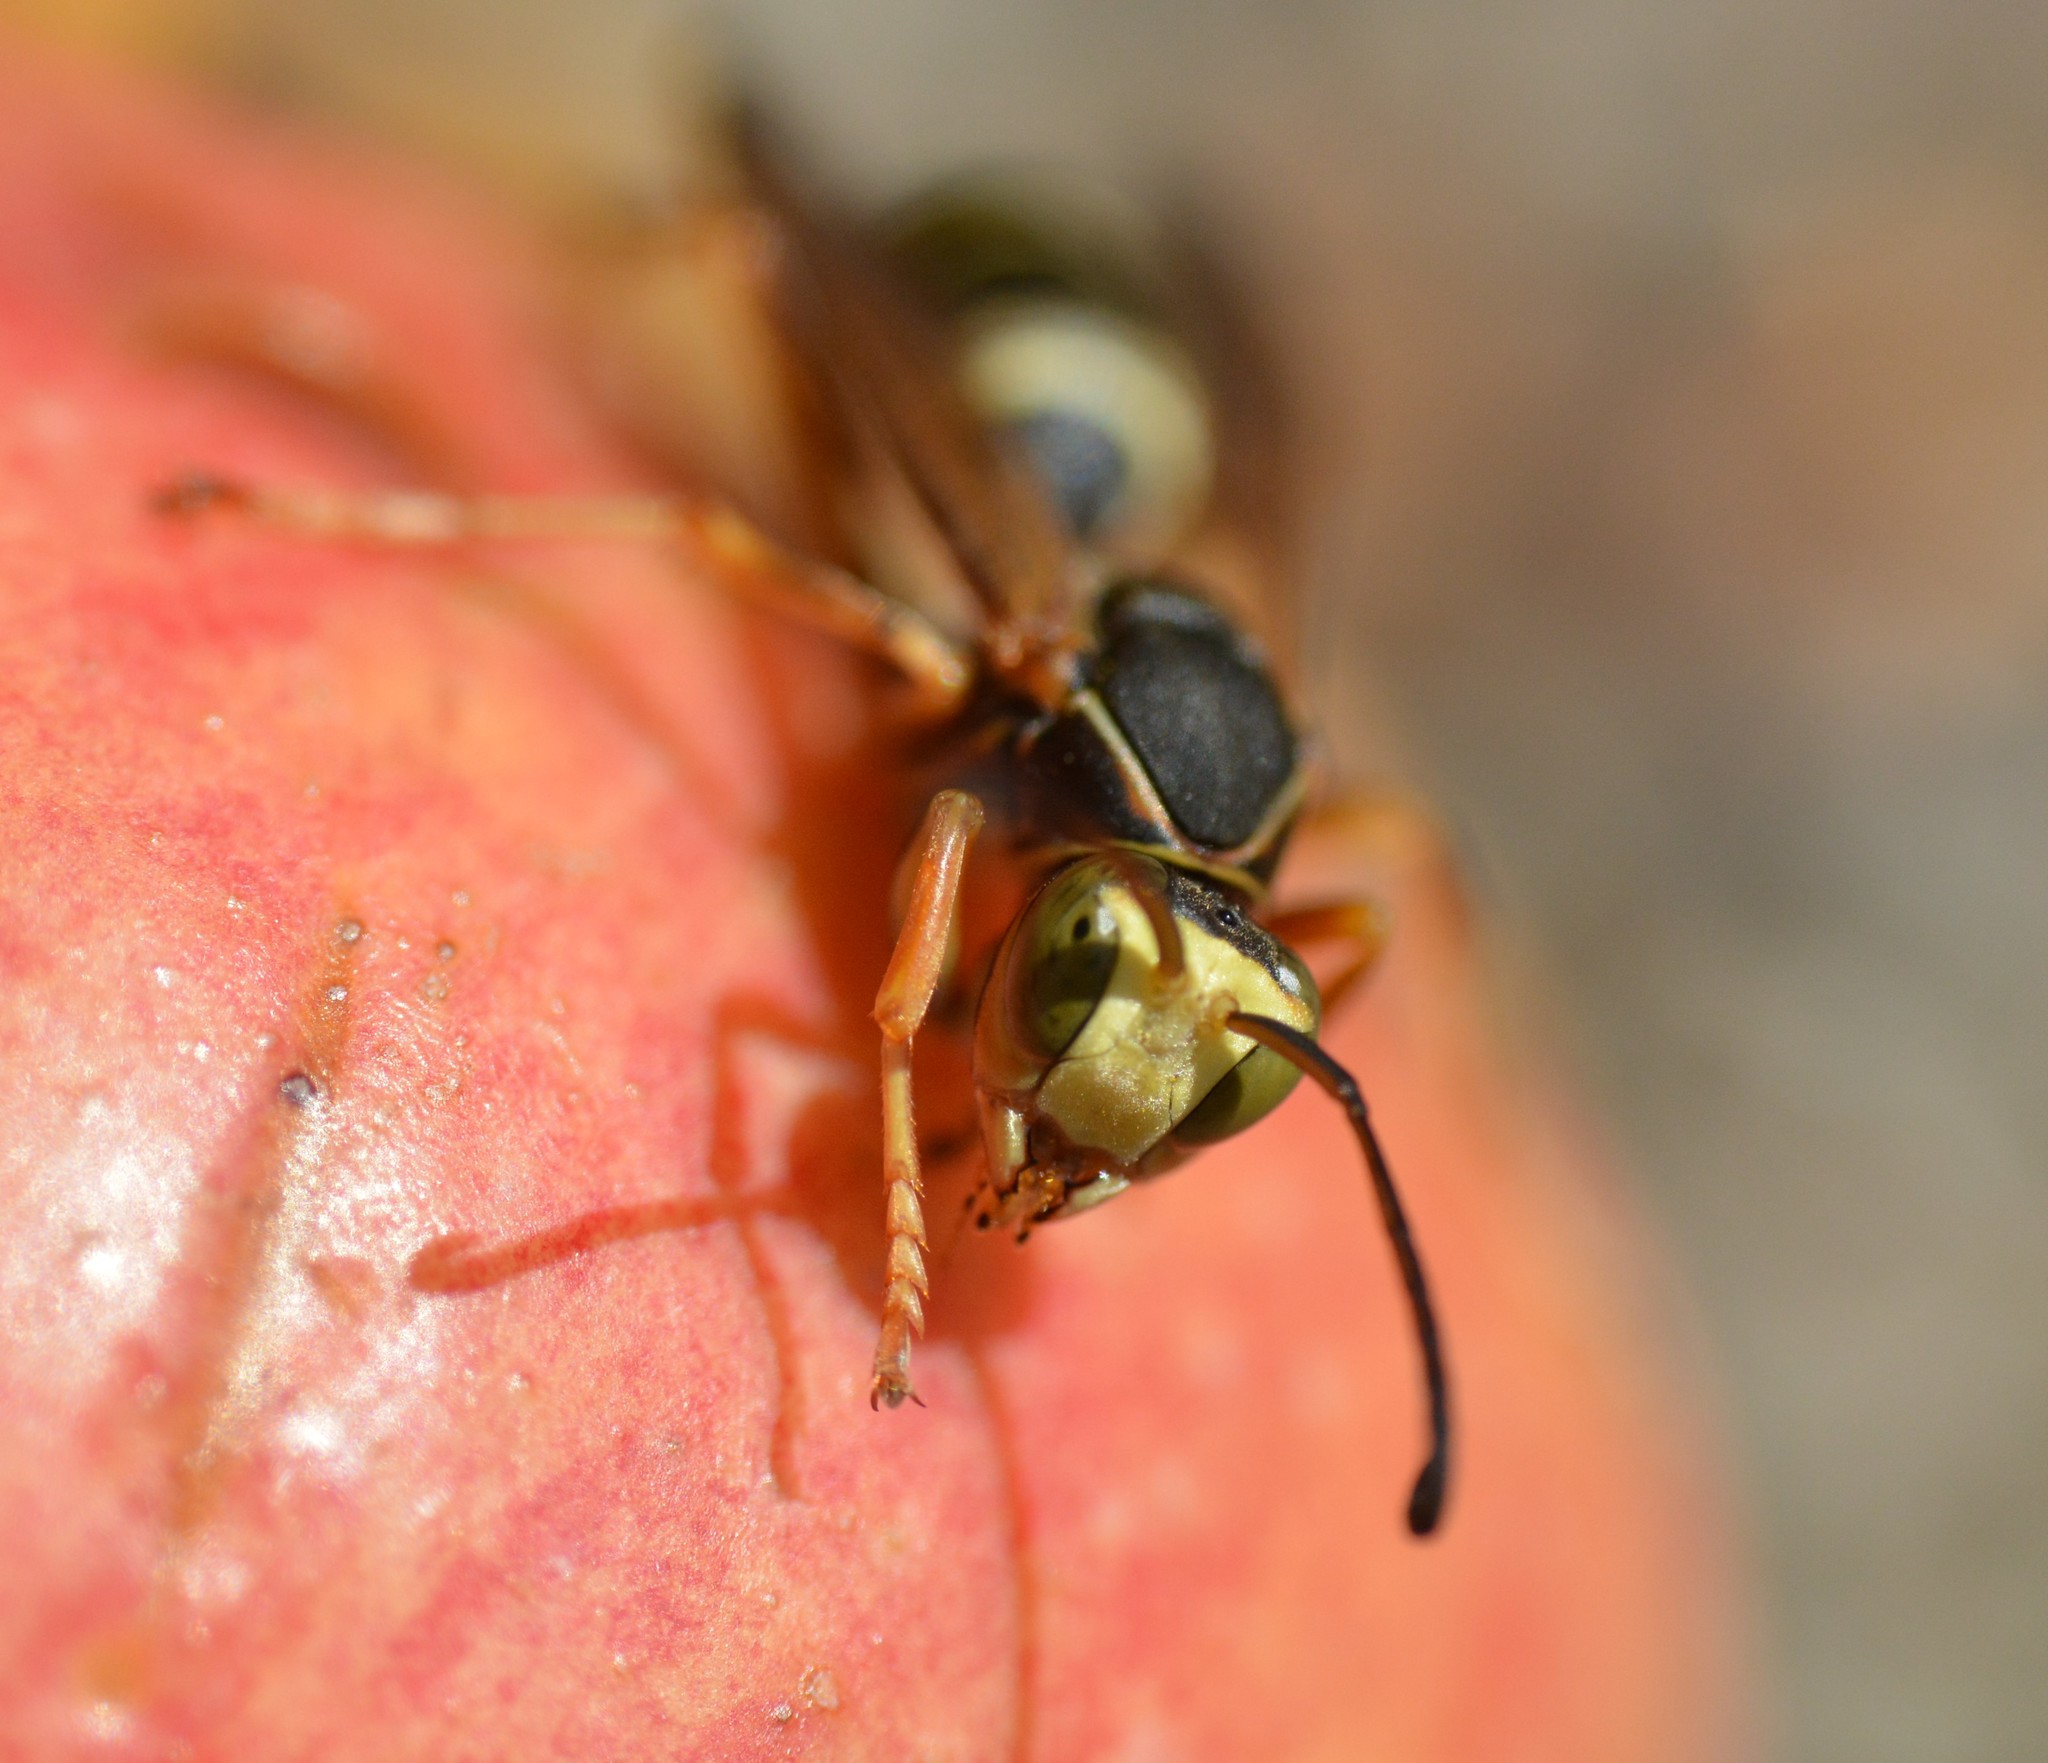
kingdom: Animalia
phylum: Arthropoda
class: Insecta
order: Hymenoptera
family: Eumenidae
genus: Polistes
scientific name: Polistes fuscatus
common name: Dark paper wasp
